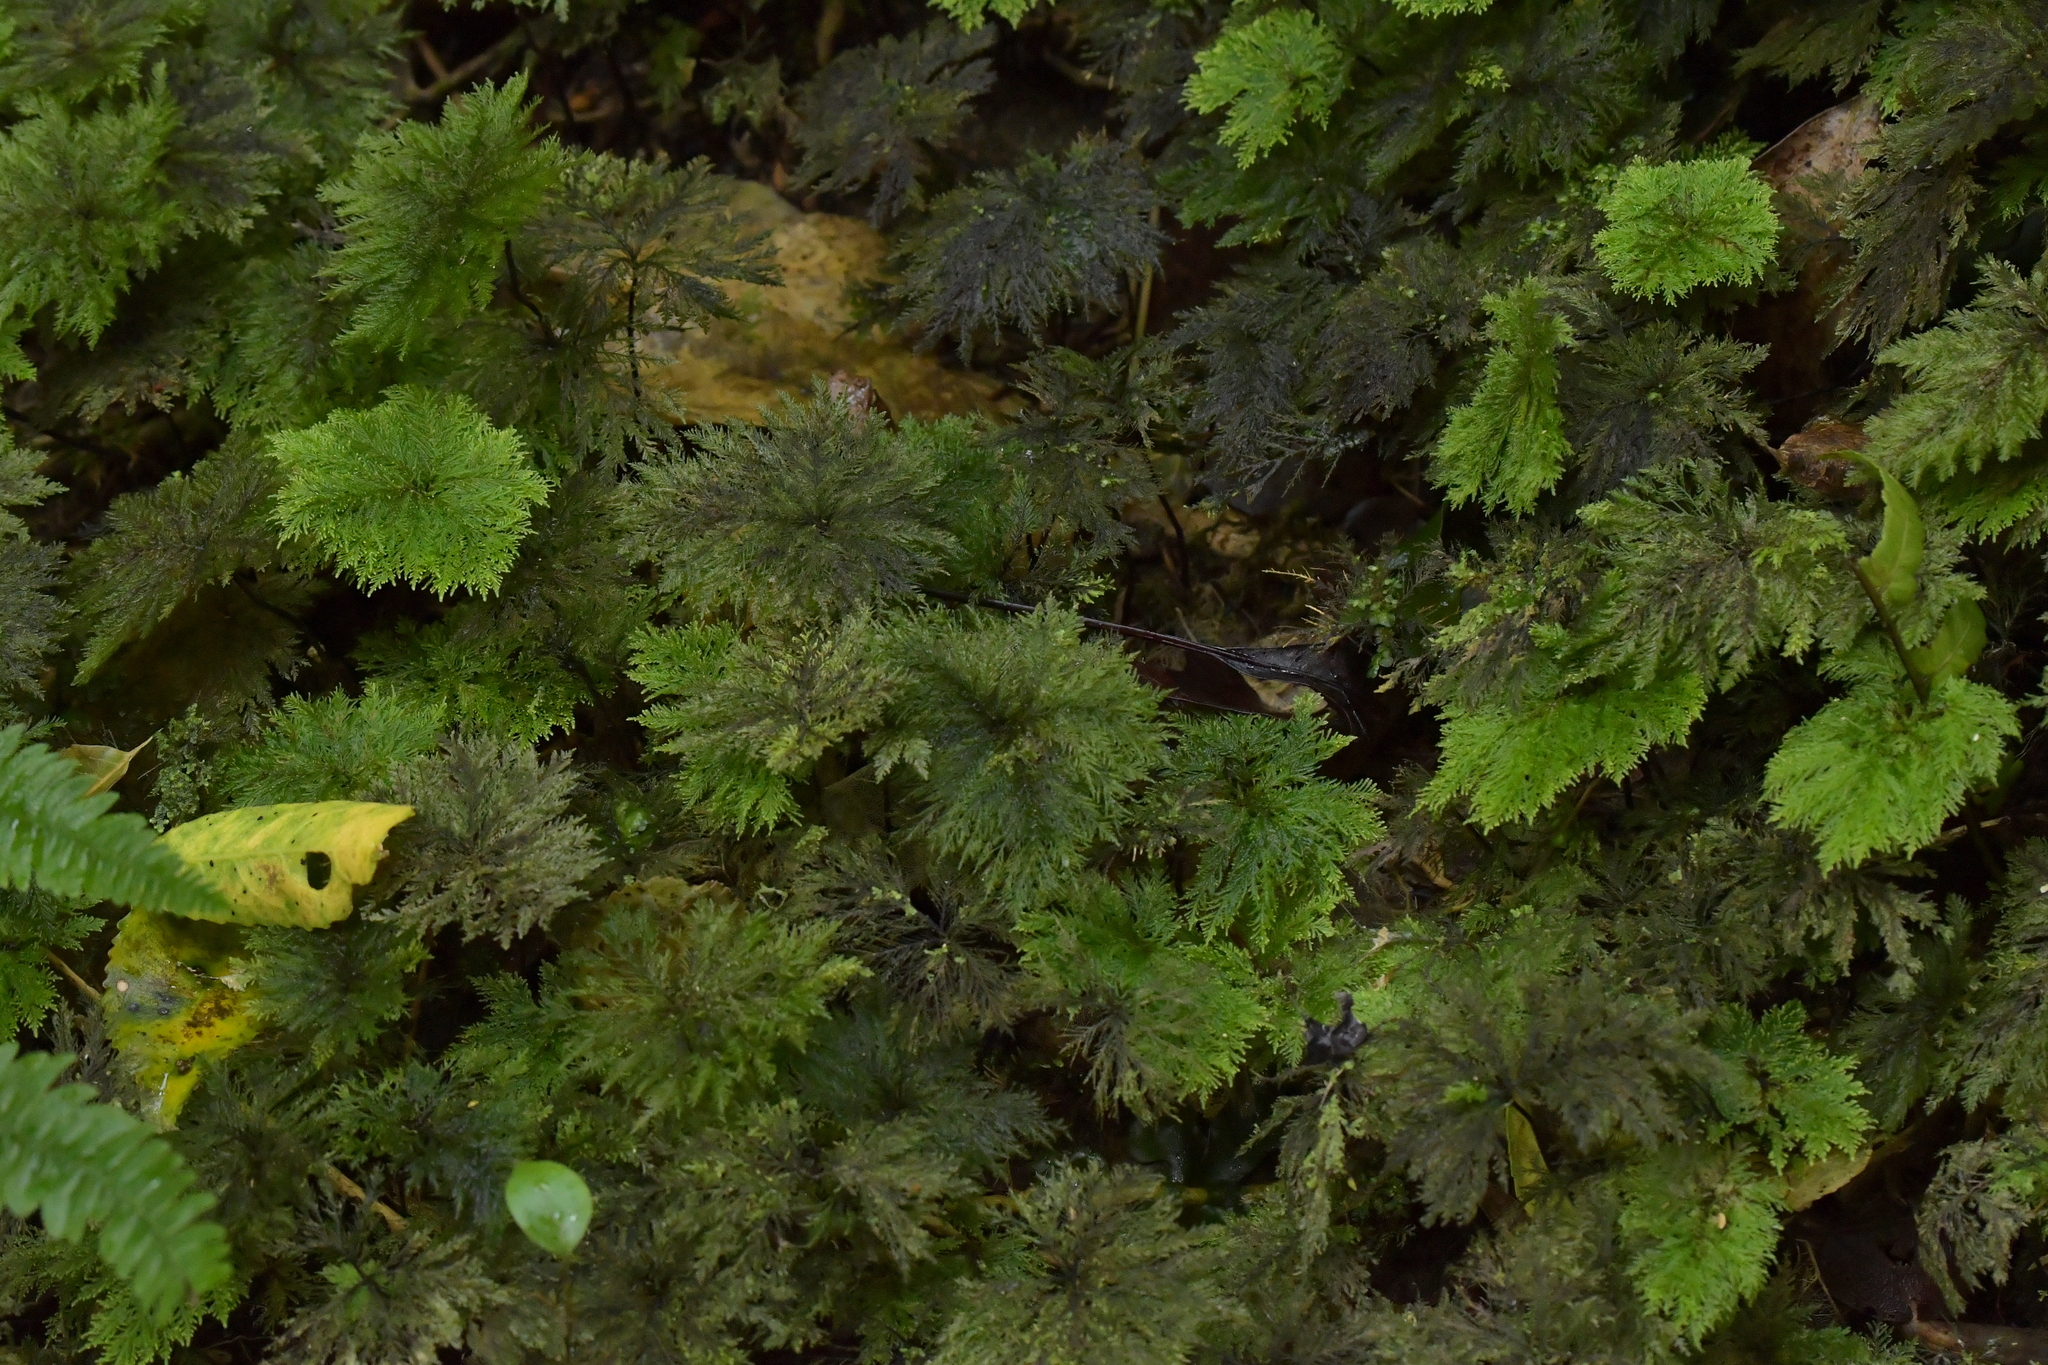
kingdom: Plantae
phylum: Bryophyta
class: Bryopsida
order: Hypopterygiales
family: Hypopterygiaceae
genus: Dendrohypopterygium
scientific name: Dendrohypopterygium filiculiforme
